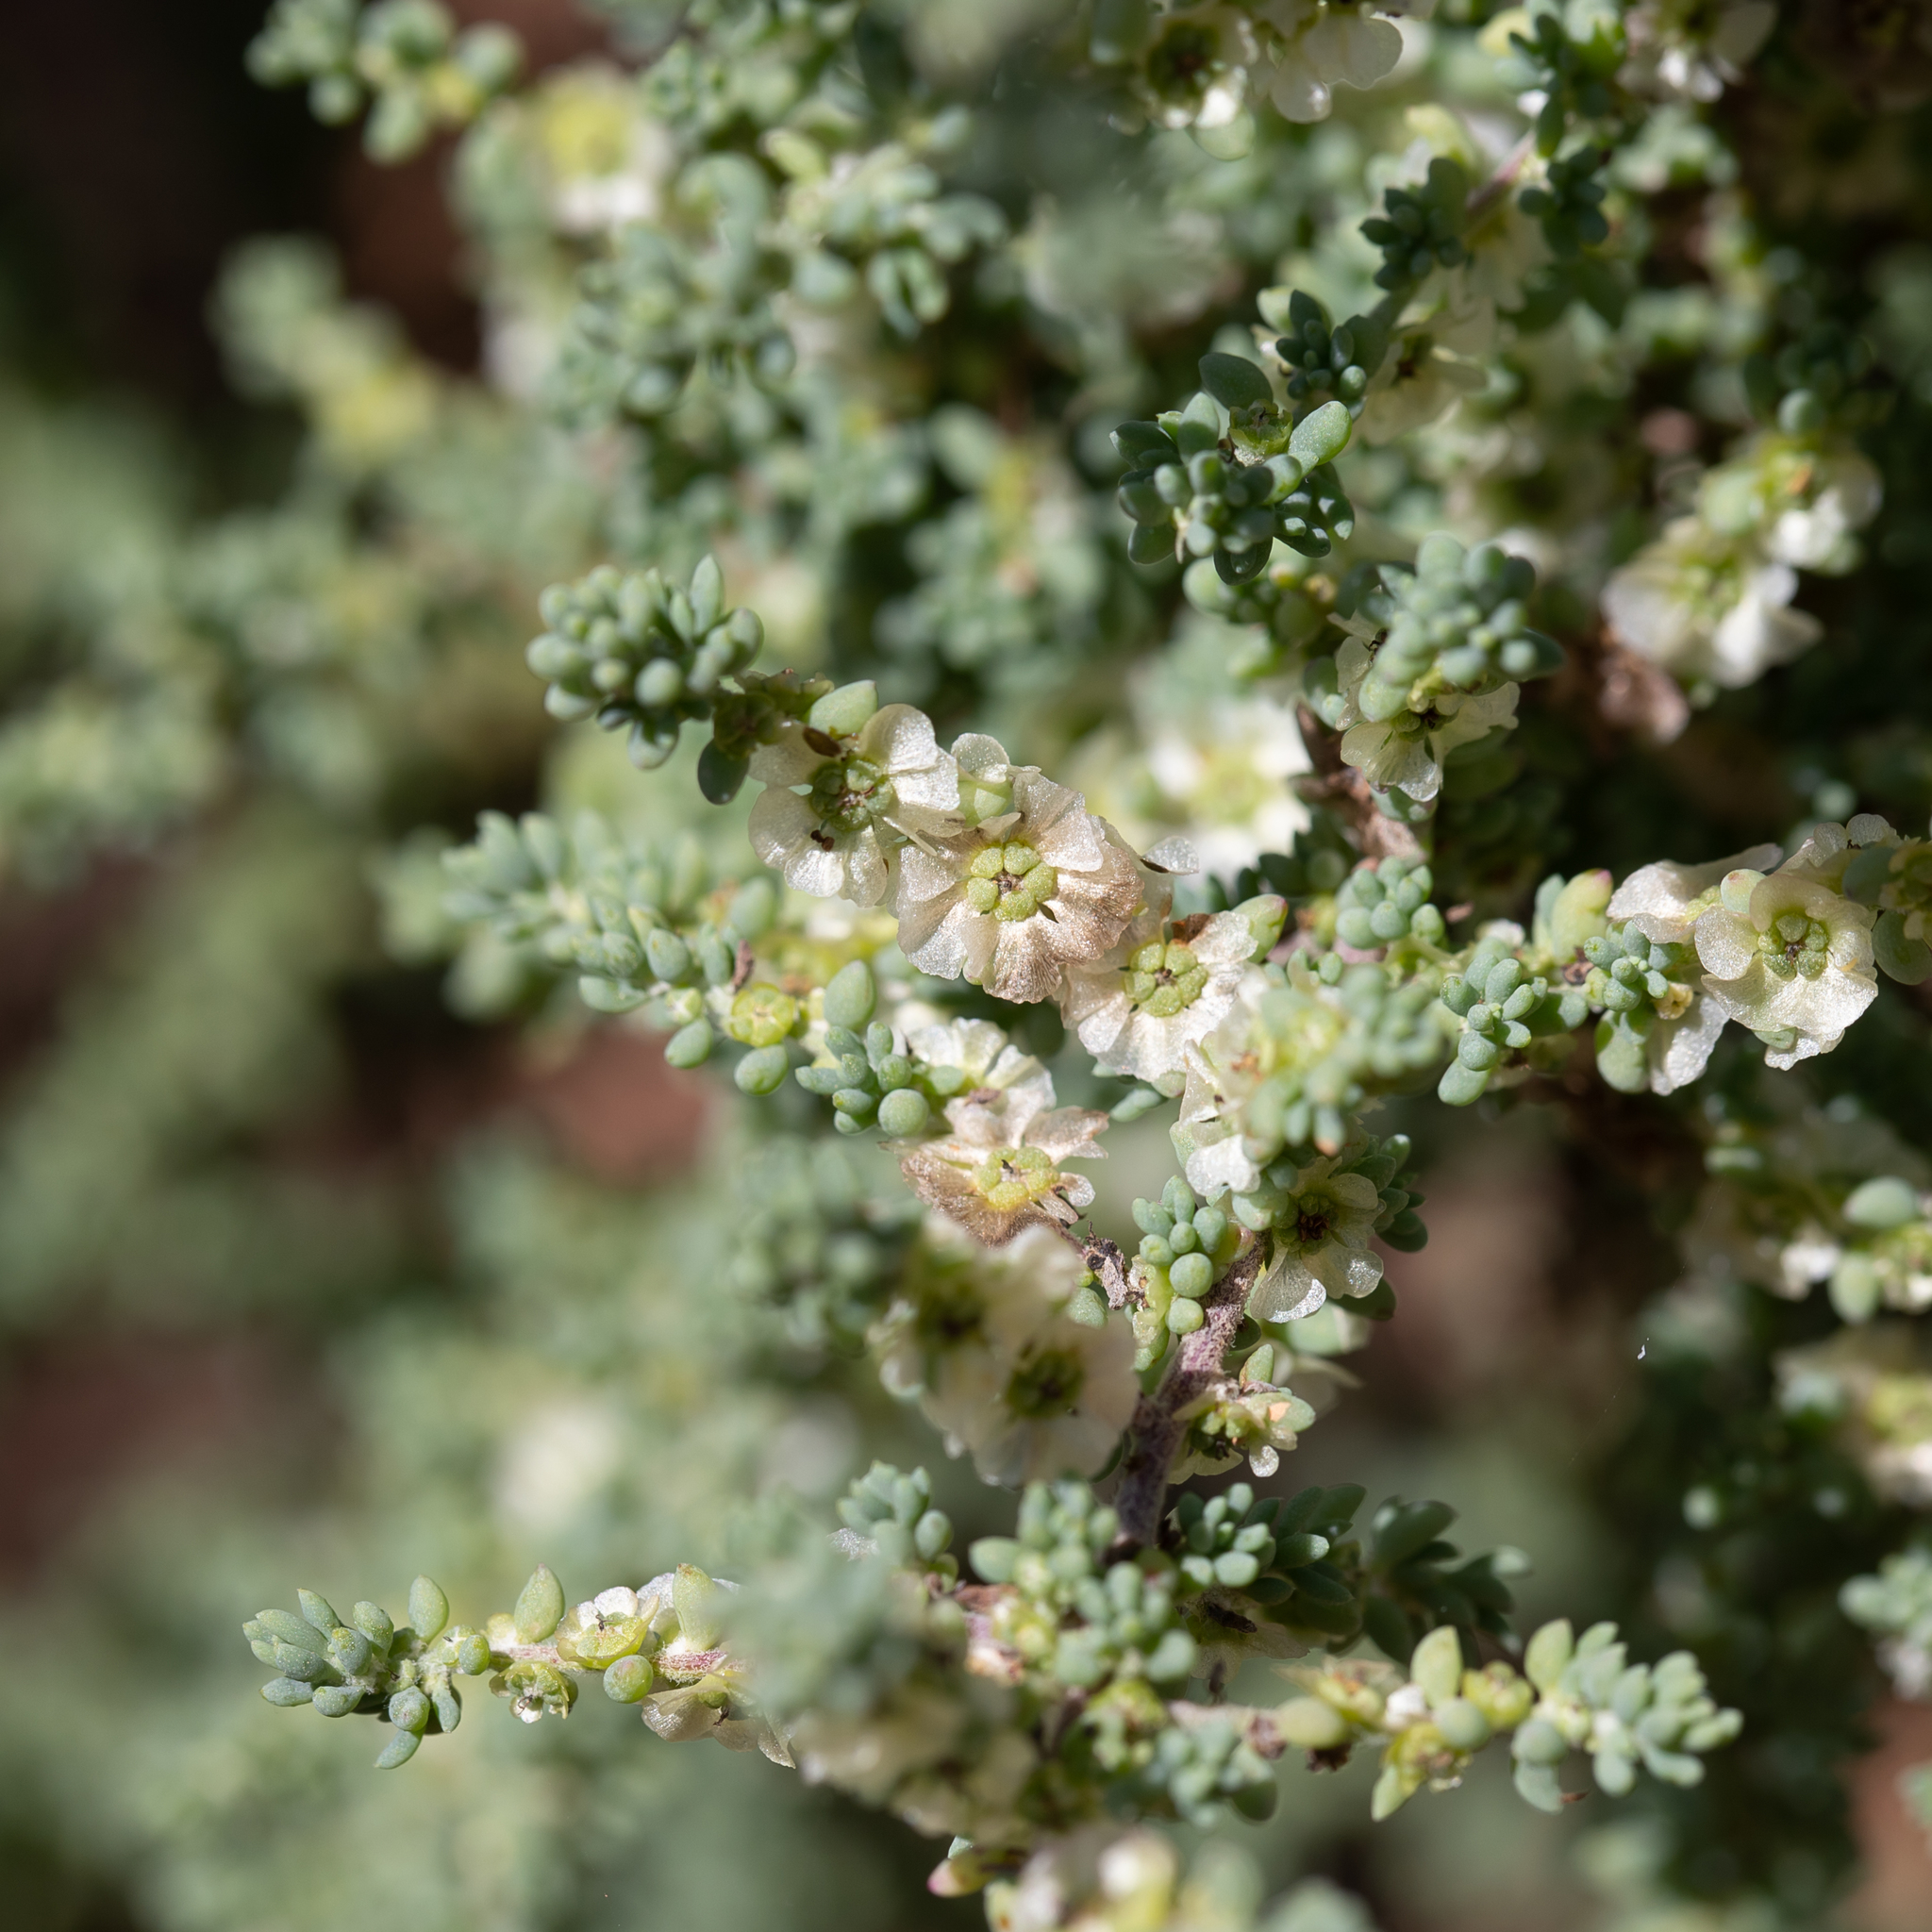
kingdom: Plantae
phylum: Tracheophyta
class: Magnoliopsida
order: Caryophyllales
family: Amaranthaceae
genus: Maireana
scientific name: Maireana brevifolia
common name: Eastern cottonbush
